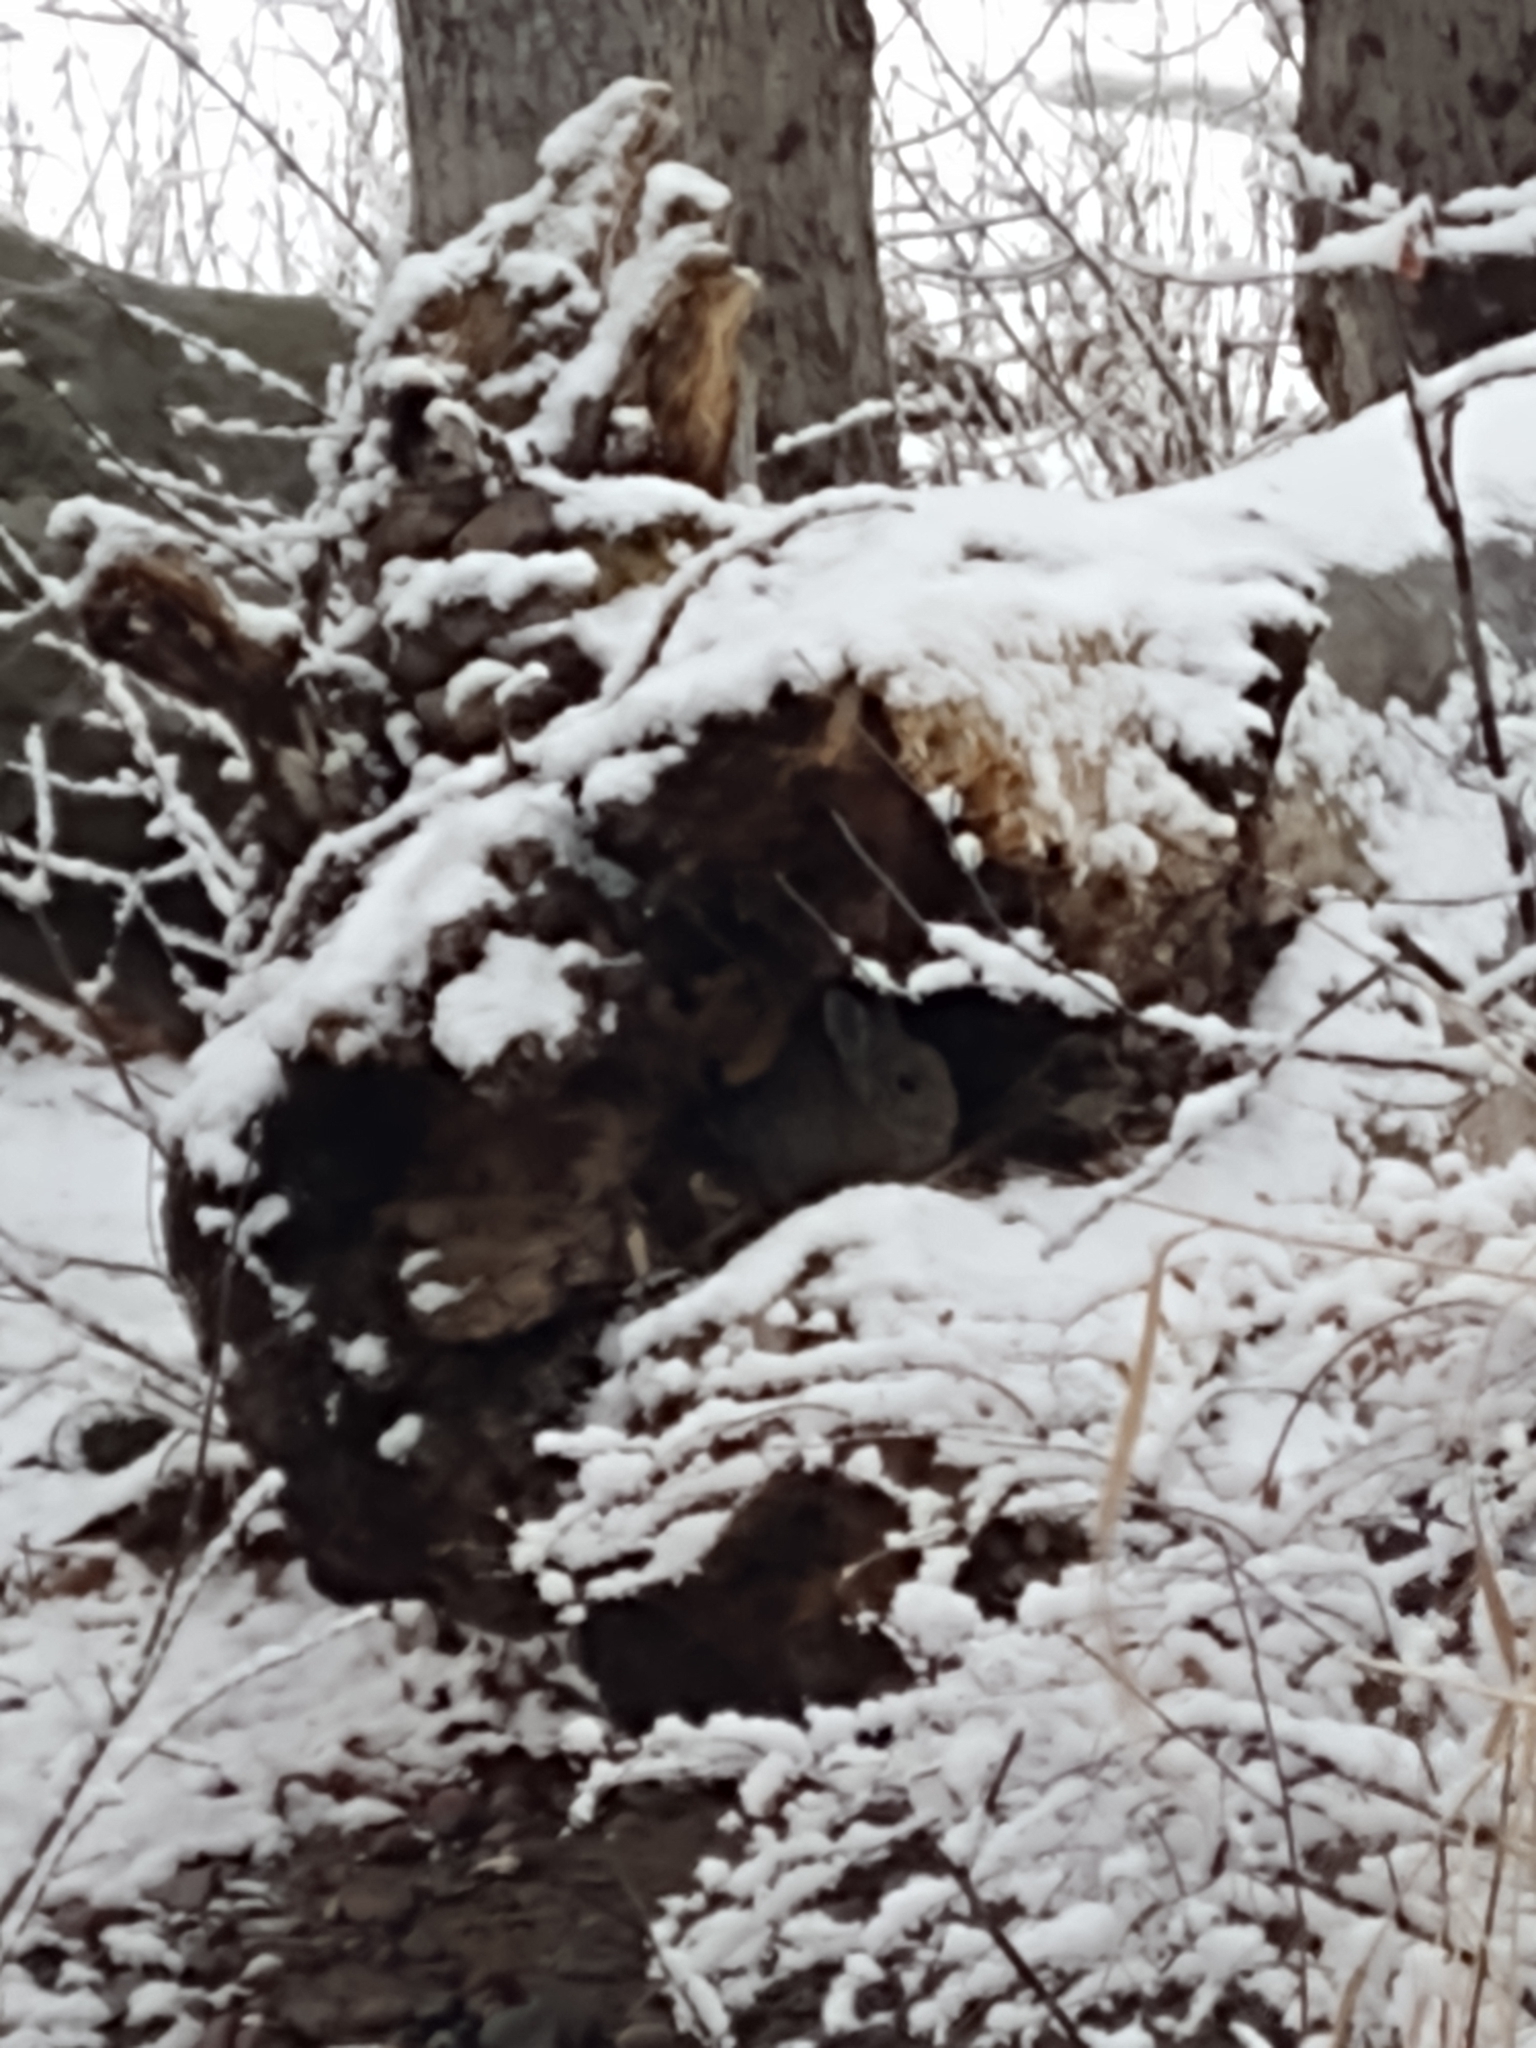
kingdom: Animalia
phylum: Chordata
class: Mammalia
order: Lagomorpha
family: Leporidae
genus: Sylvilagus
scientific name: Sylvilagus nuttallii
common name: Mountain cottontail
